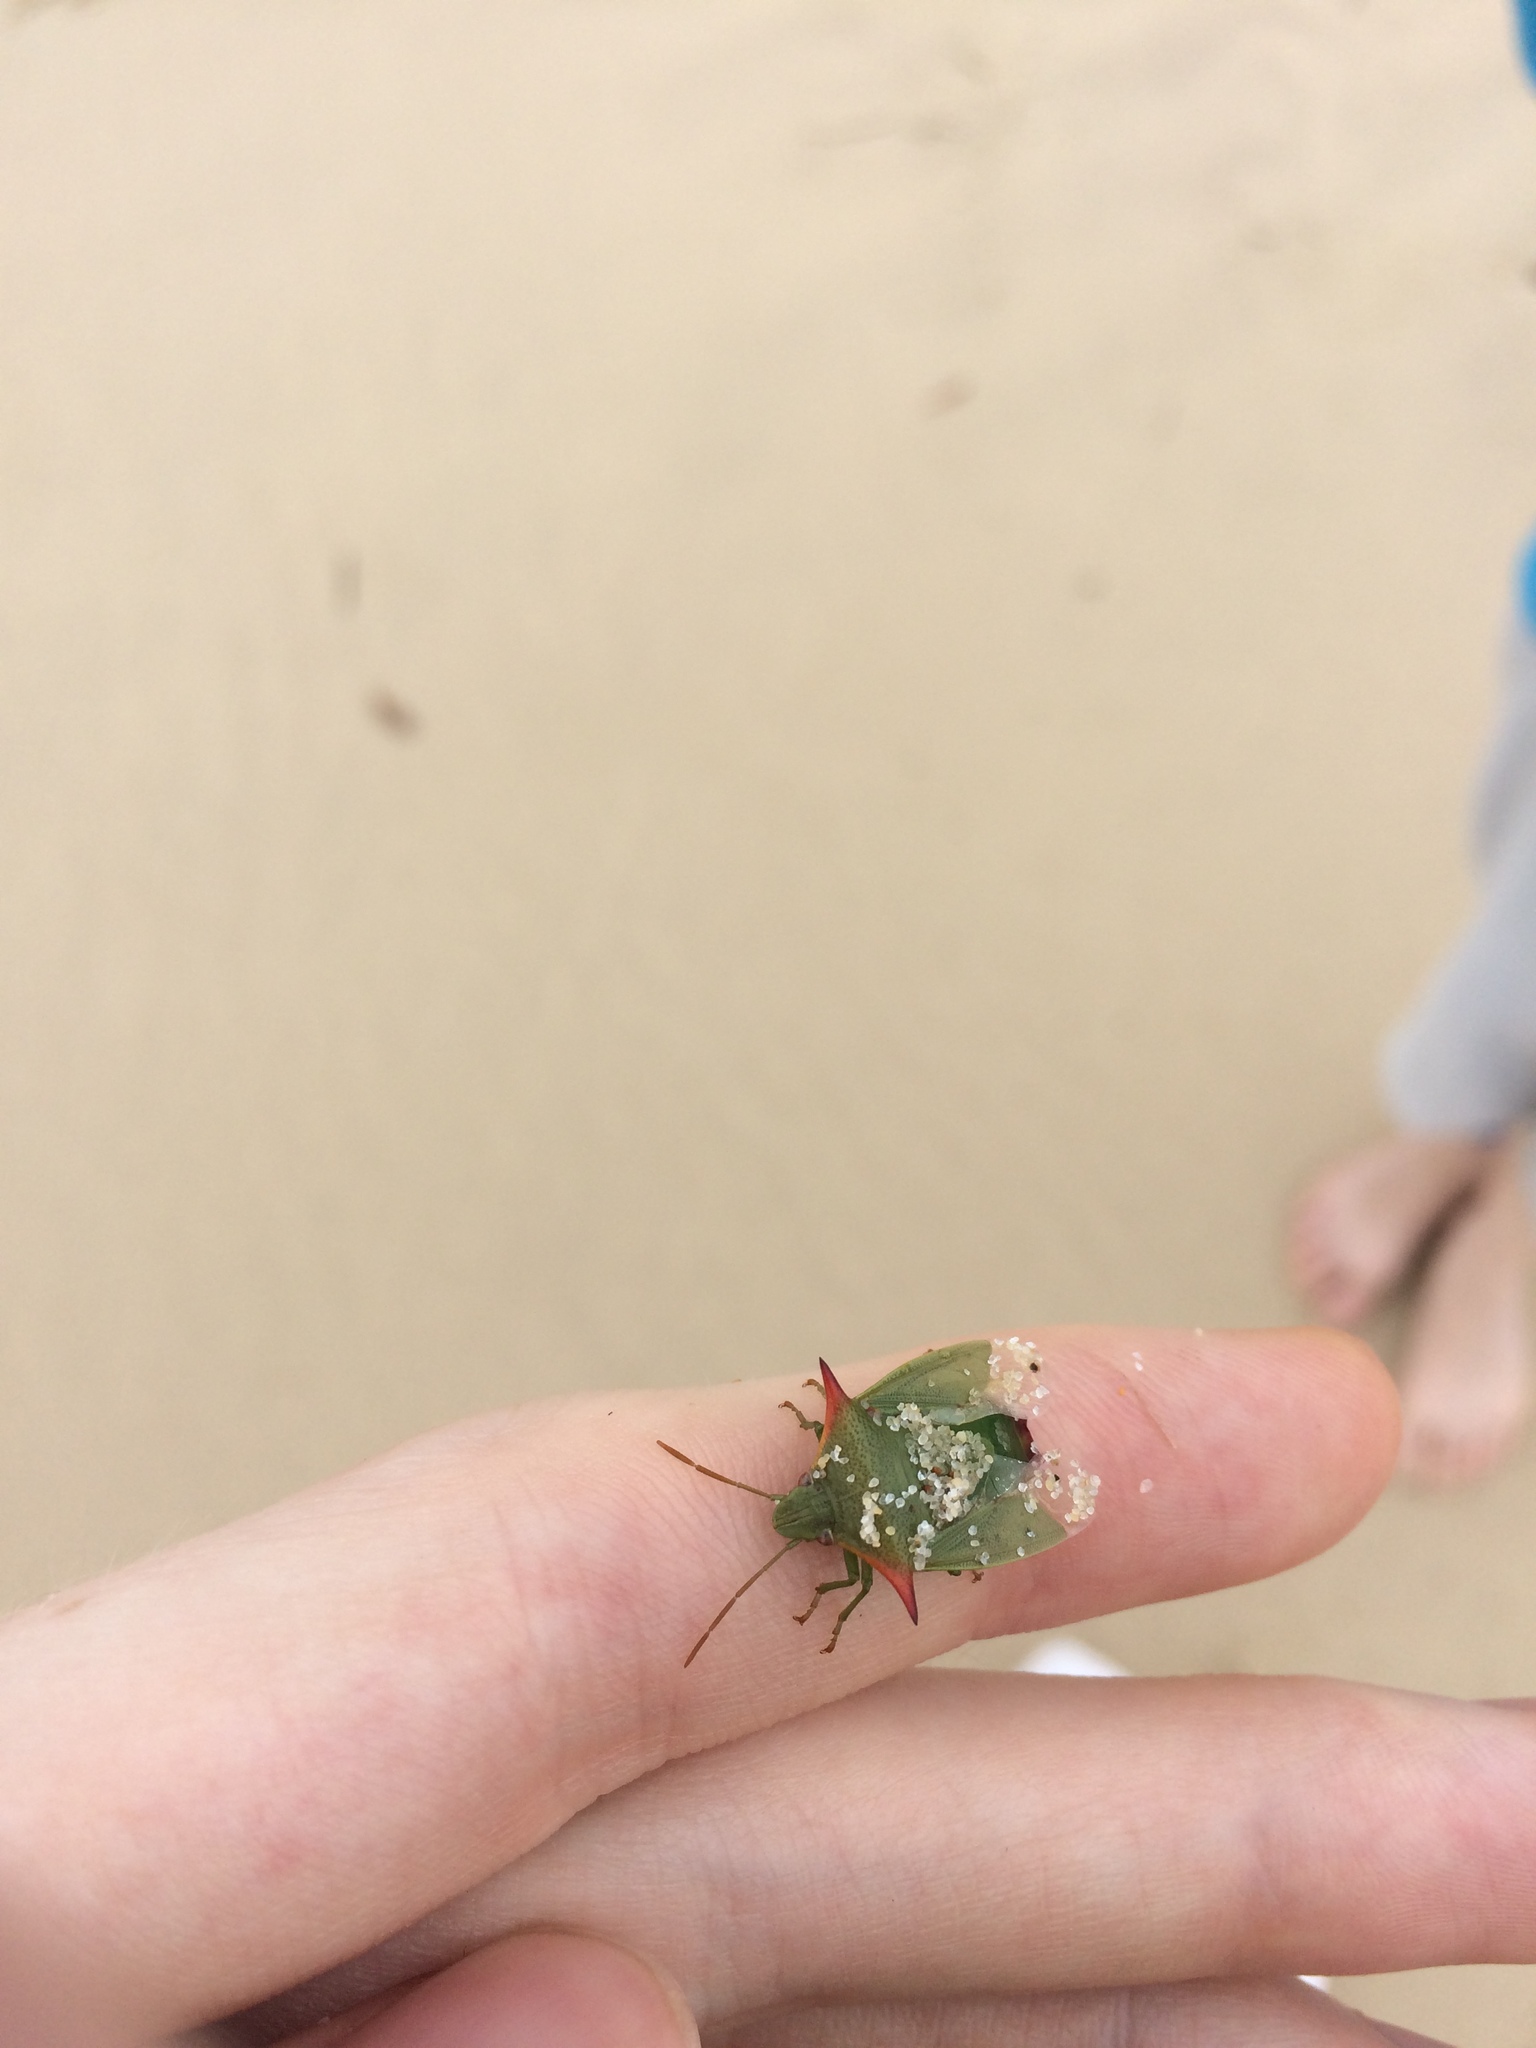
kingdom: Animalia
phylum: Arthropoda
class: Insecta
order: Hemiptera
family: Pentatomidae
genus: Avicenna
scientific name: Avicenna
